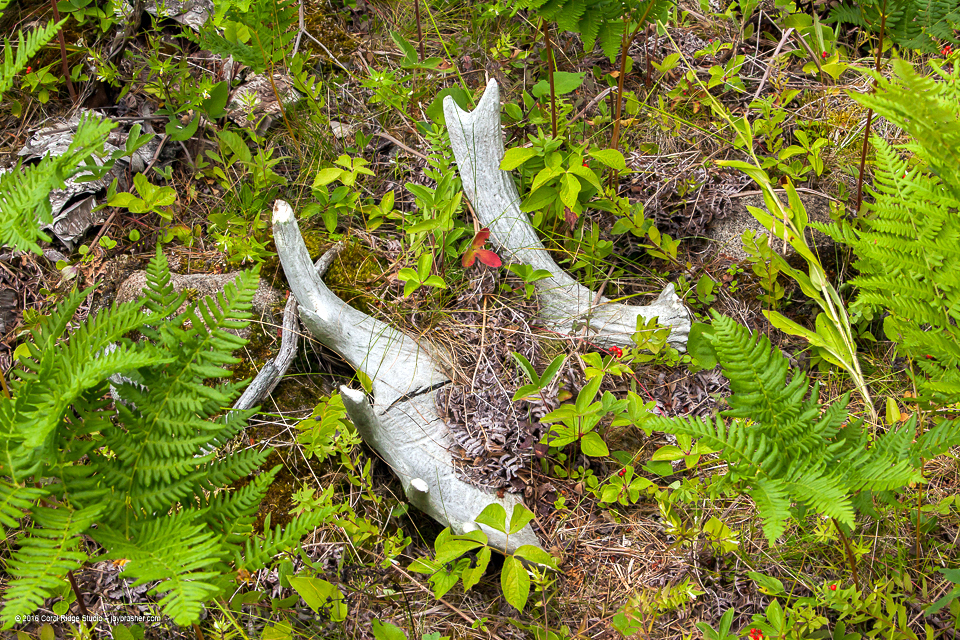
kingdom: Animalia
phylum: Chordata
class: Mammalia
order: Artiodactyla
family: Cervidae
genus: Alces
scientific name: Alces alces
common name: Moose
